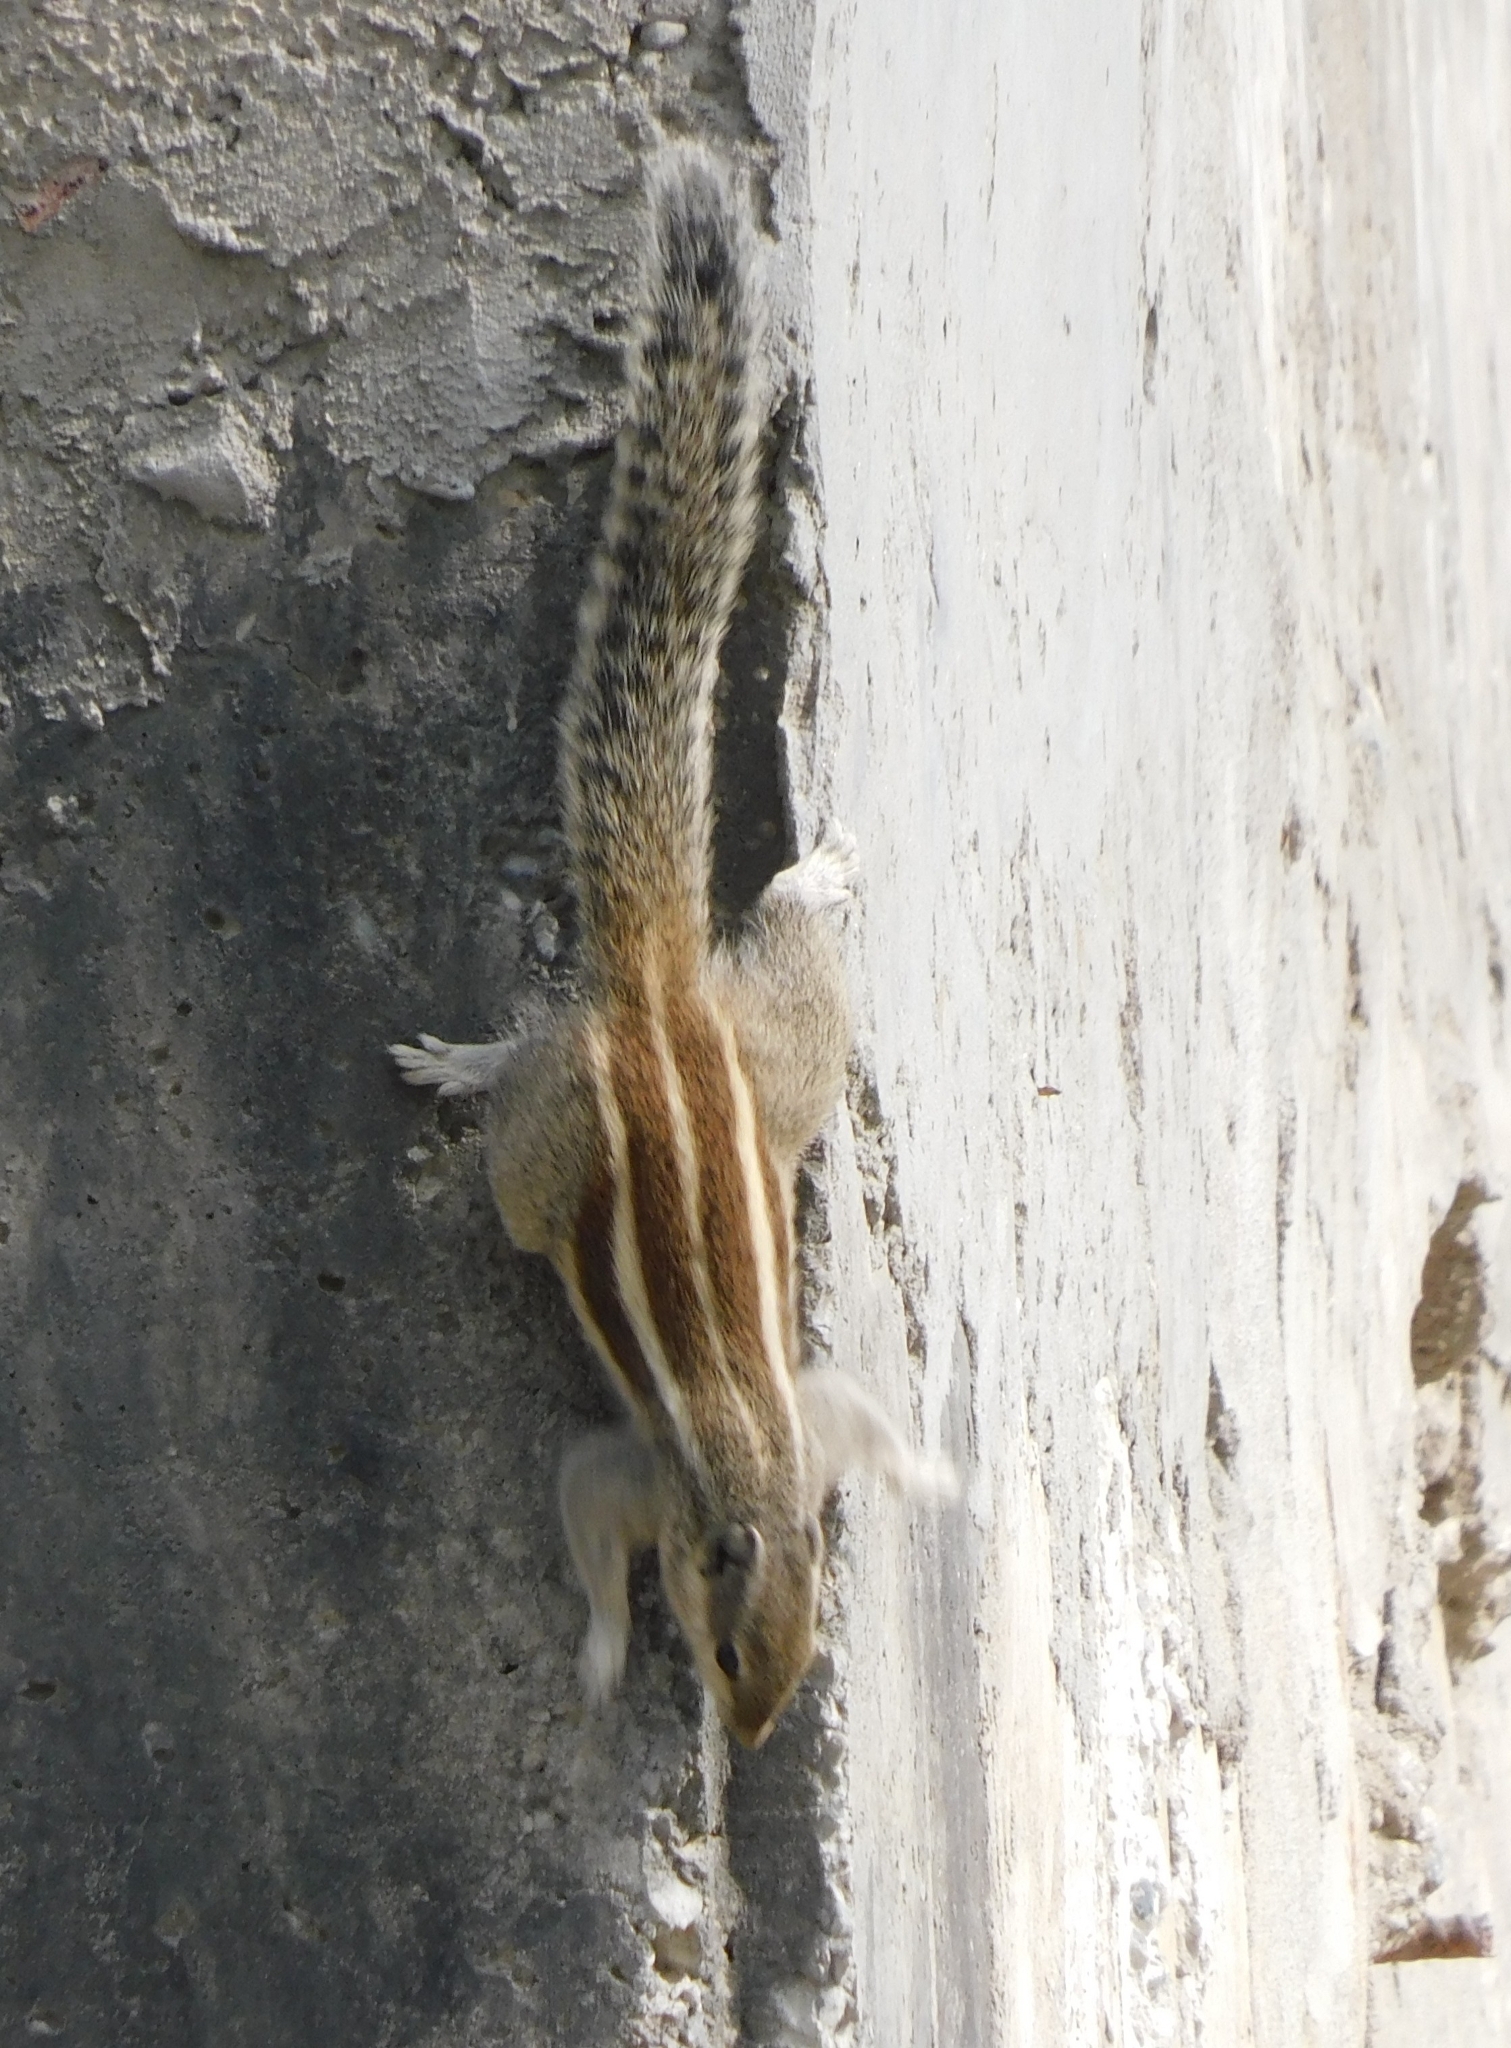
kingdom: Animalia
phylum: Chordata
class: Mammalia
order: Rodentia
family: Sciuridae
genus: Funambulus
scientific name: Funambulus pennantii
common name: Northern palm squirrel
